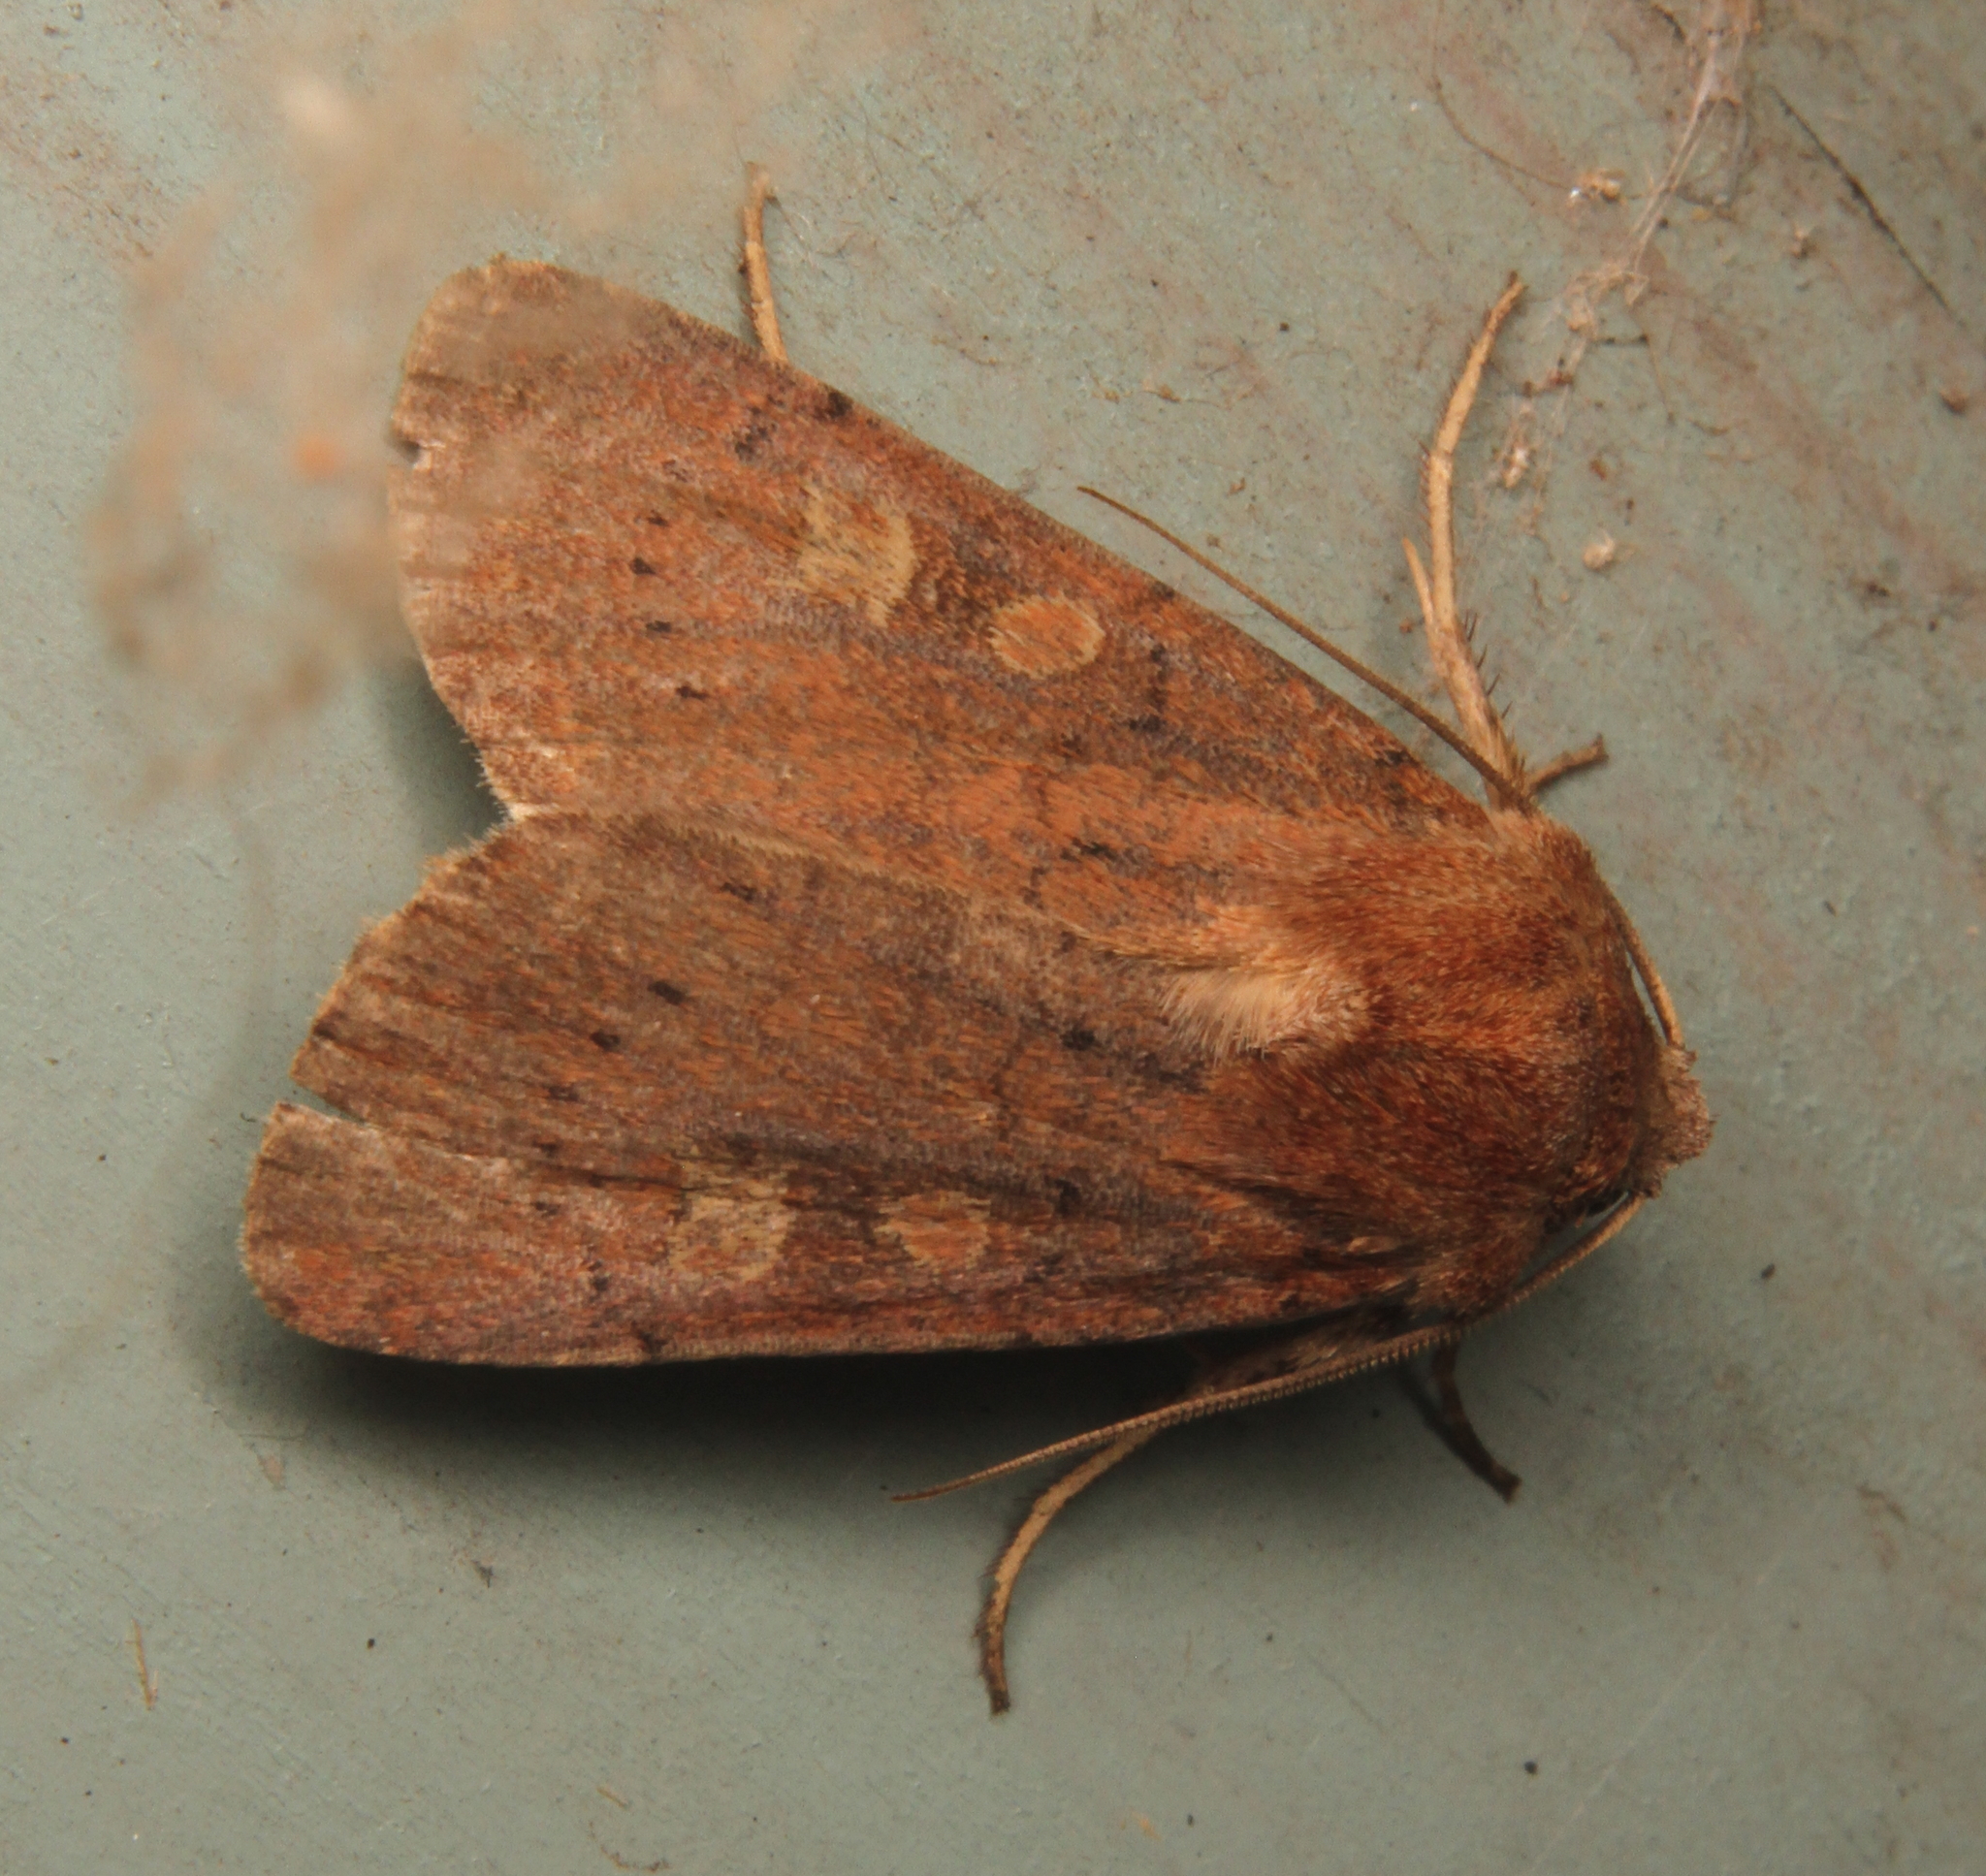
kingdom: Animalia
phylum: Arthropoda
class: Insecta
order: Lepidoptera
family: Noctuidae
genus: Xestia
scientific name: Xestia xanthographa
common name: Square-spot rustic
